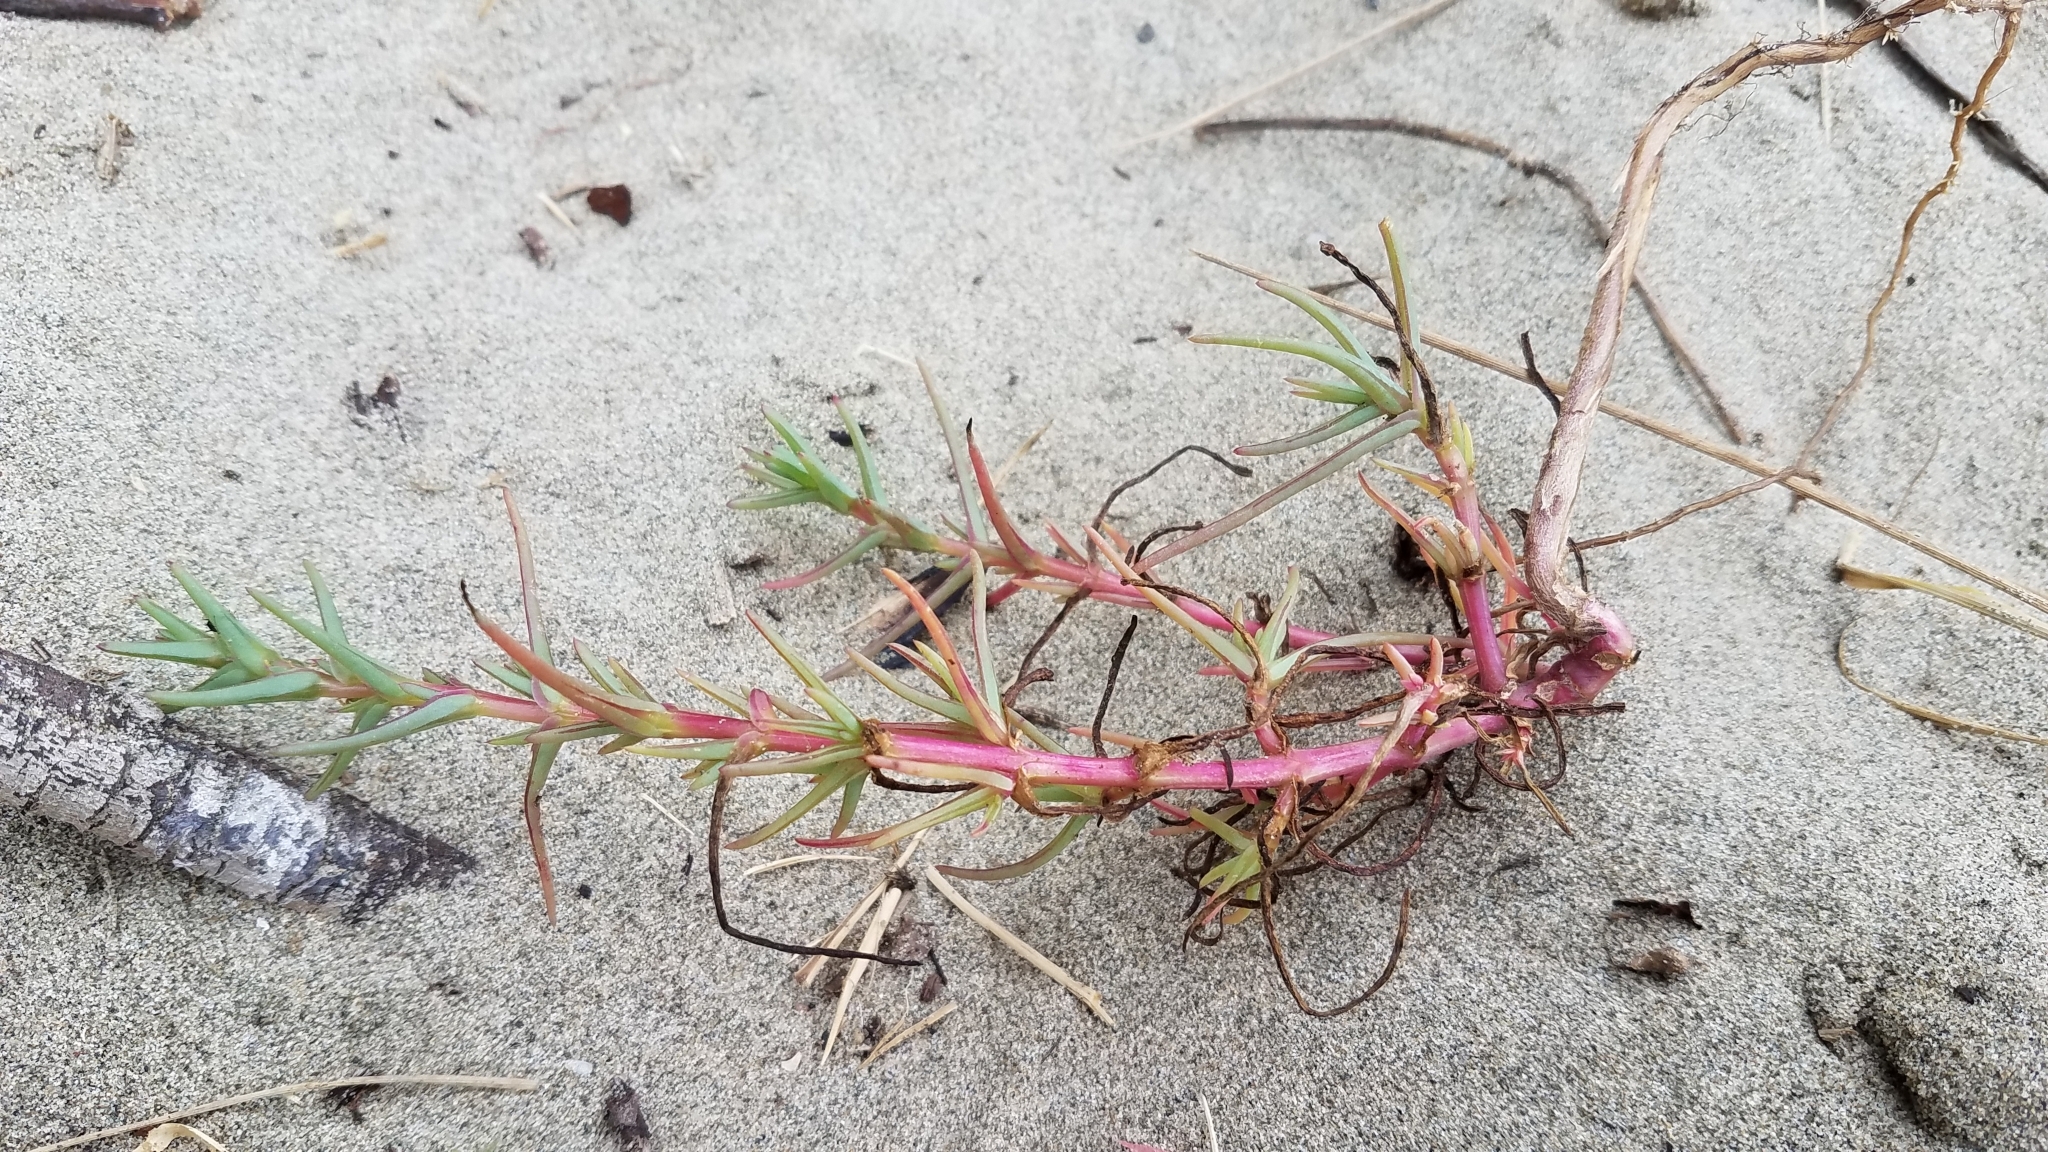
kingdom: Plantae
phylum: Tracheophyta
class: Magnoliopsida
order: Caryophyllales
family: Amaranthaceae
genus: Salsola
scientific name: Salsola soda
